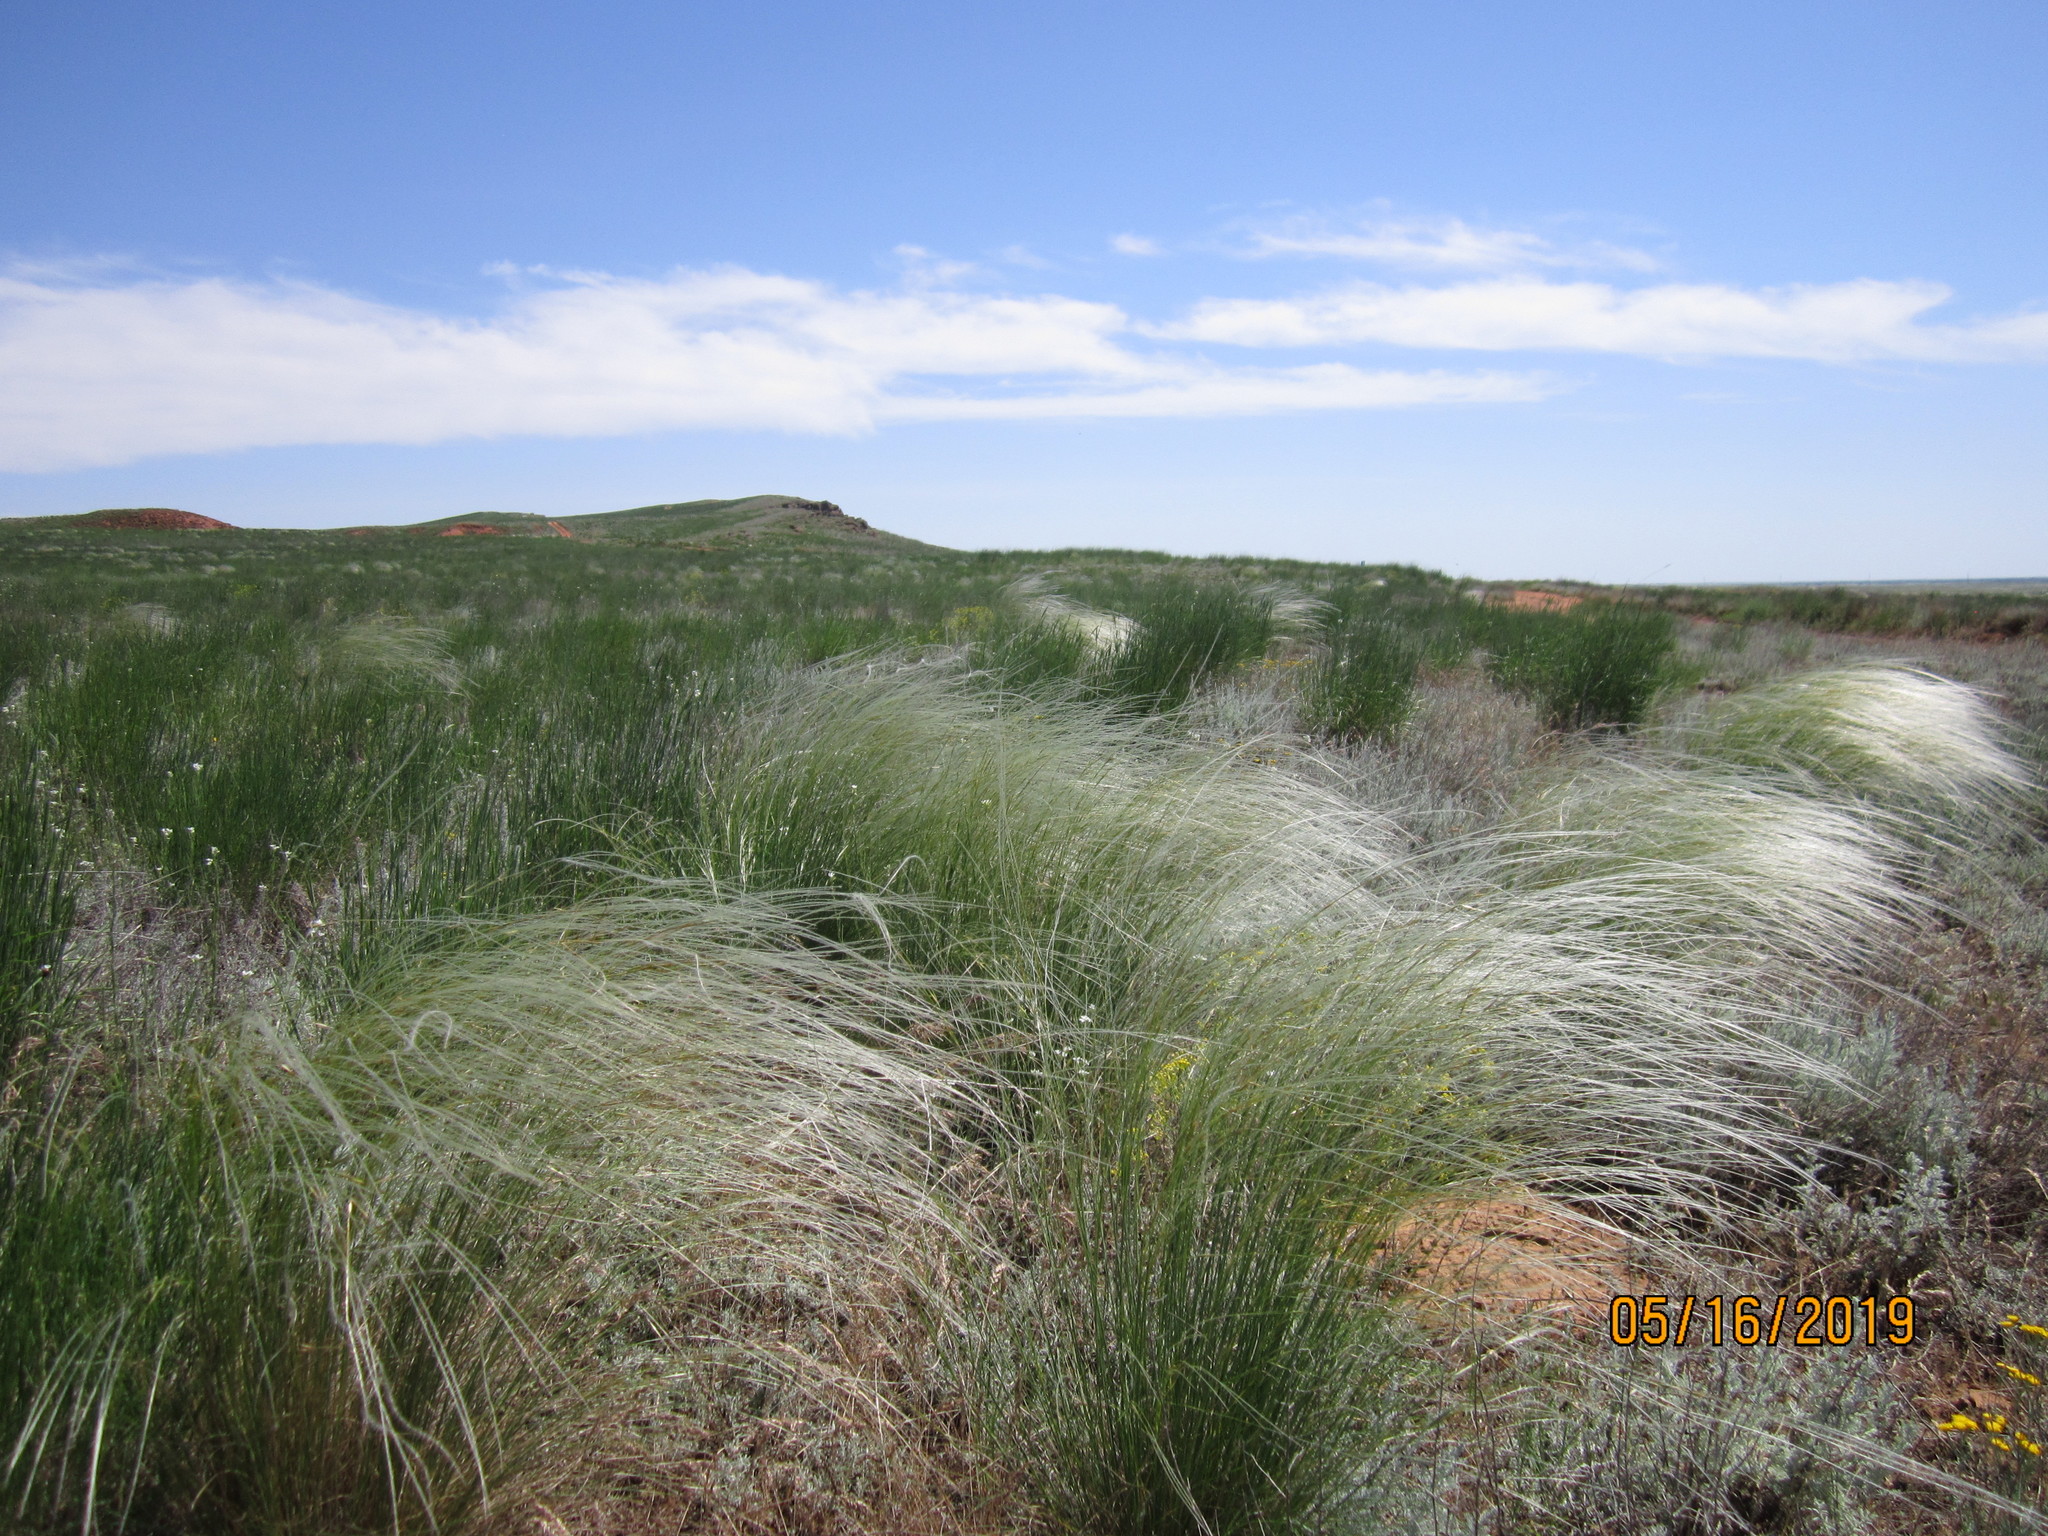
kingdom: Plantae
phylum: Tracheophyta
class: Liliopsida
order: Poales
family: Poaceae
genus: Stipa
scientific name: Stipa pennata
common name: European feather grass
